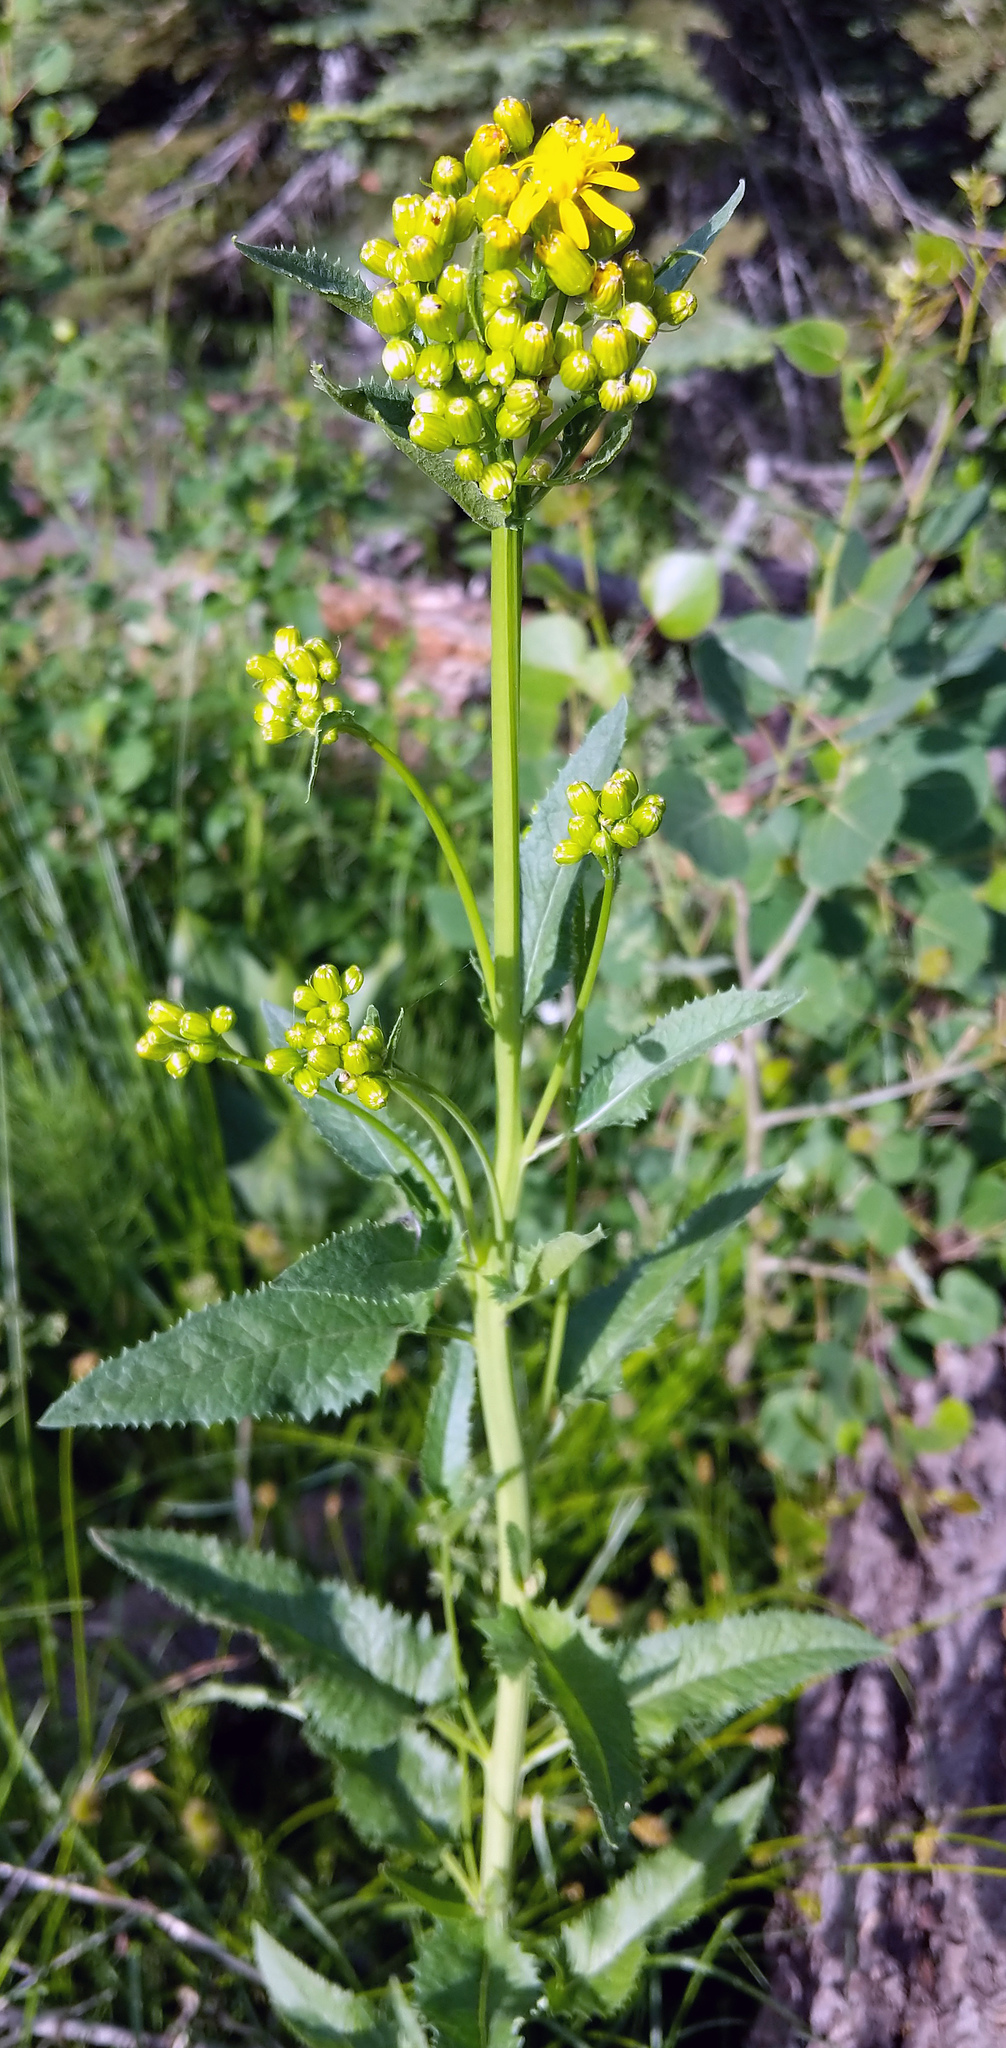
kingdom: Plantae
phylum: Tracheophyta
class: Magnoliopsida
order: Asterales
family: Asteraceae
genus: Senecio
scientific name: Senecio triangularis
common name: Arrowleaf butterweed
